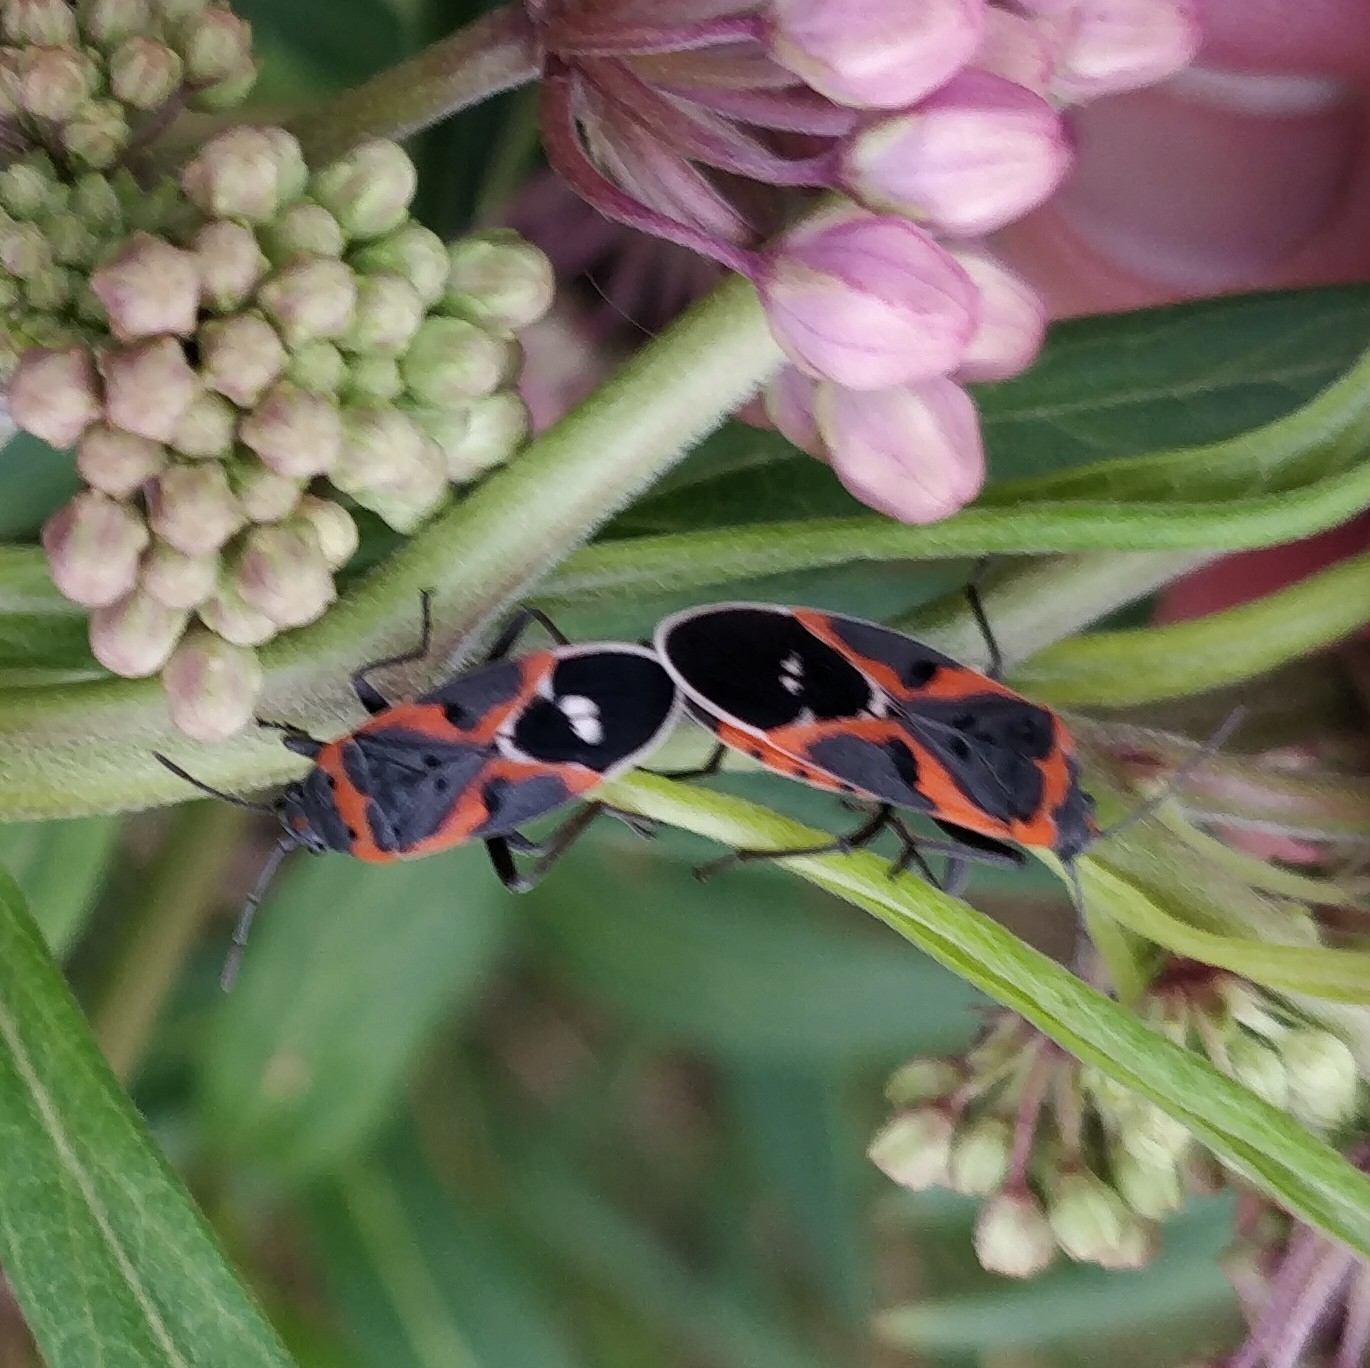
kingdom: Animalia
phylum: Arthropoda
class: Insecta
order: Hemiptera
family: Lygaeidae
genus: Lygaeus
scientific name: Lygaeus kalmii
